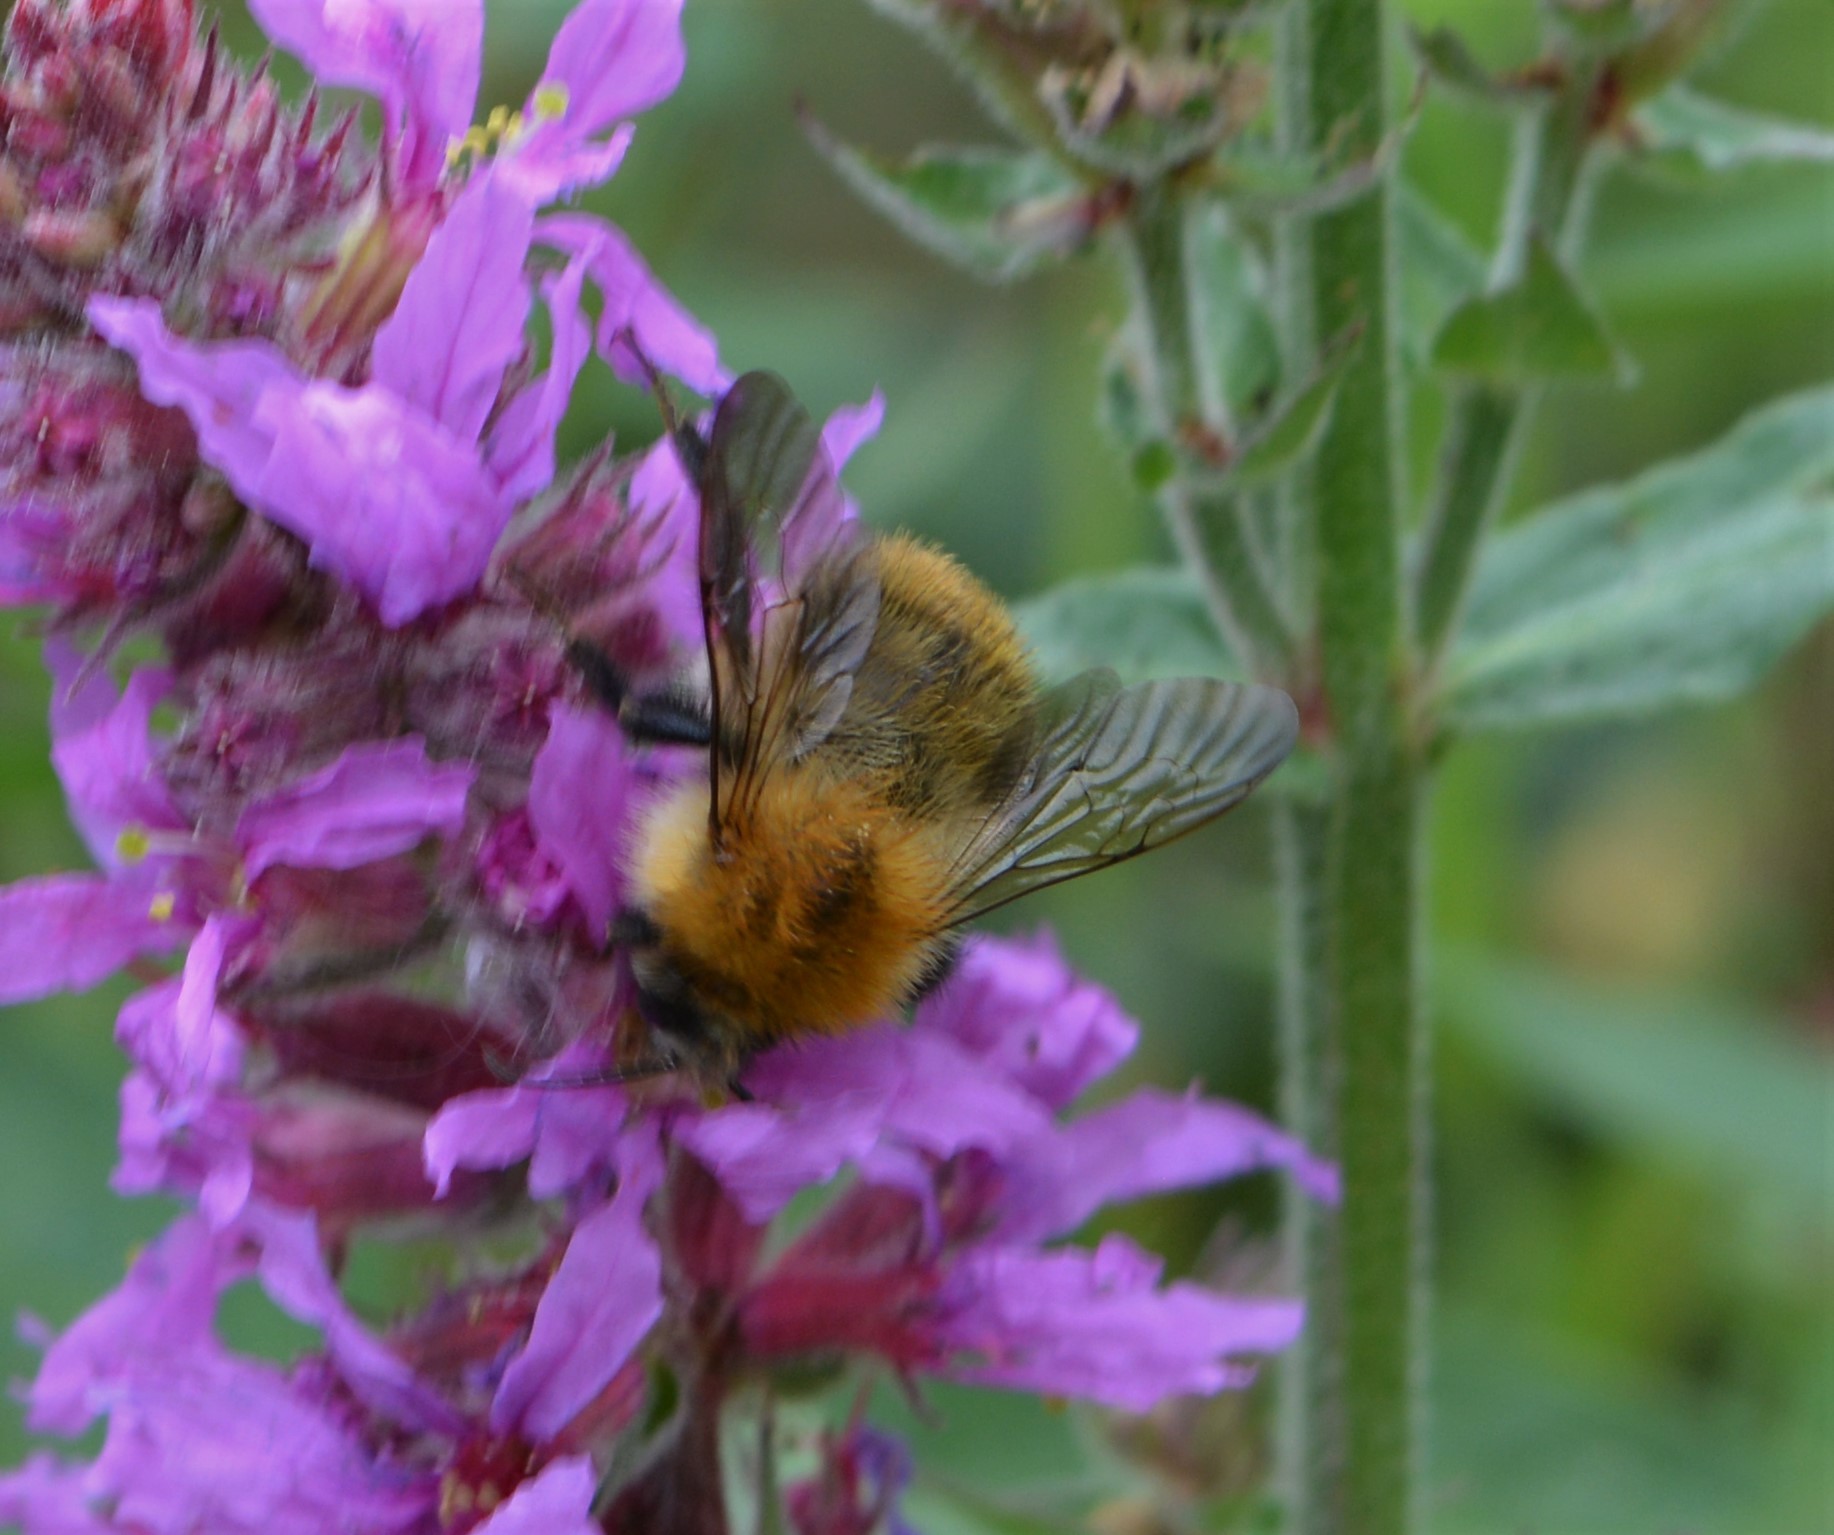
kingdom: Animalia
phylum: Arthropoda
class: Insecta
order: Hymenoptera
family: Apidae
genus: Bombus
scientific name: Bombus pascuorum
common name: Common carder bee
